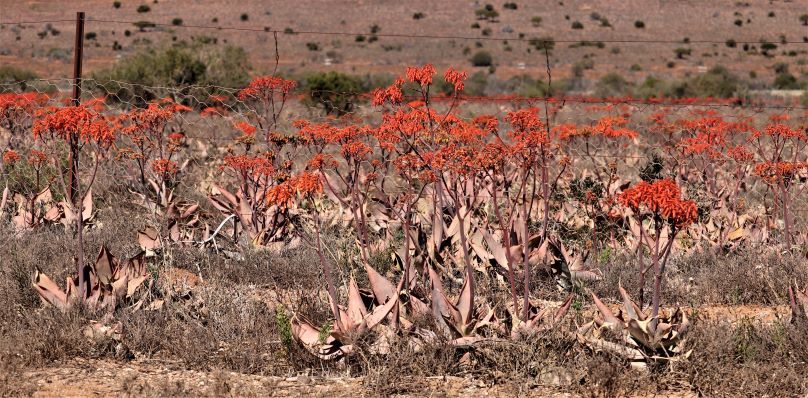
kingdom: Plantae
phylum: Tracheophyta
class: Liliopsida
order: Asparagales
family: Asphodelaceae
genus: Aloe
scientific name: Aloe striata
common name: Coral aloe
